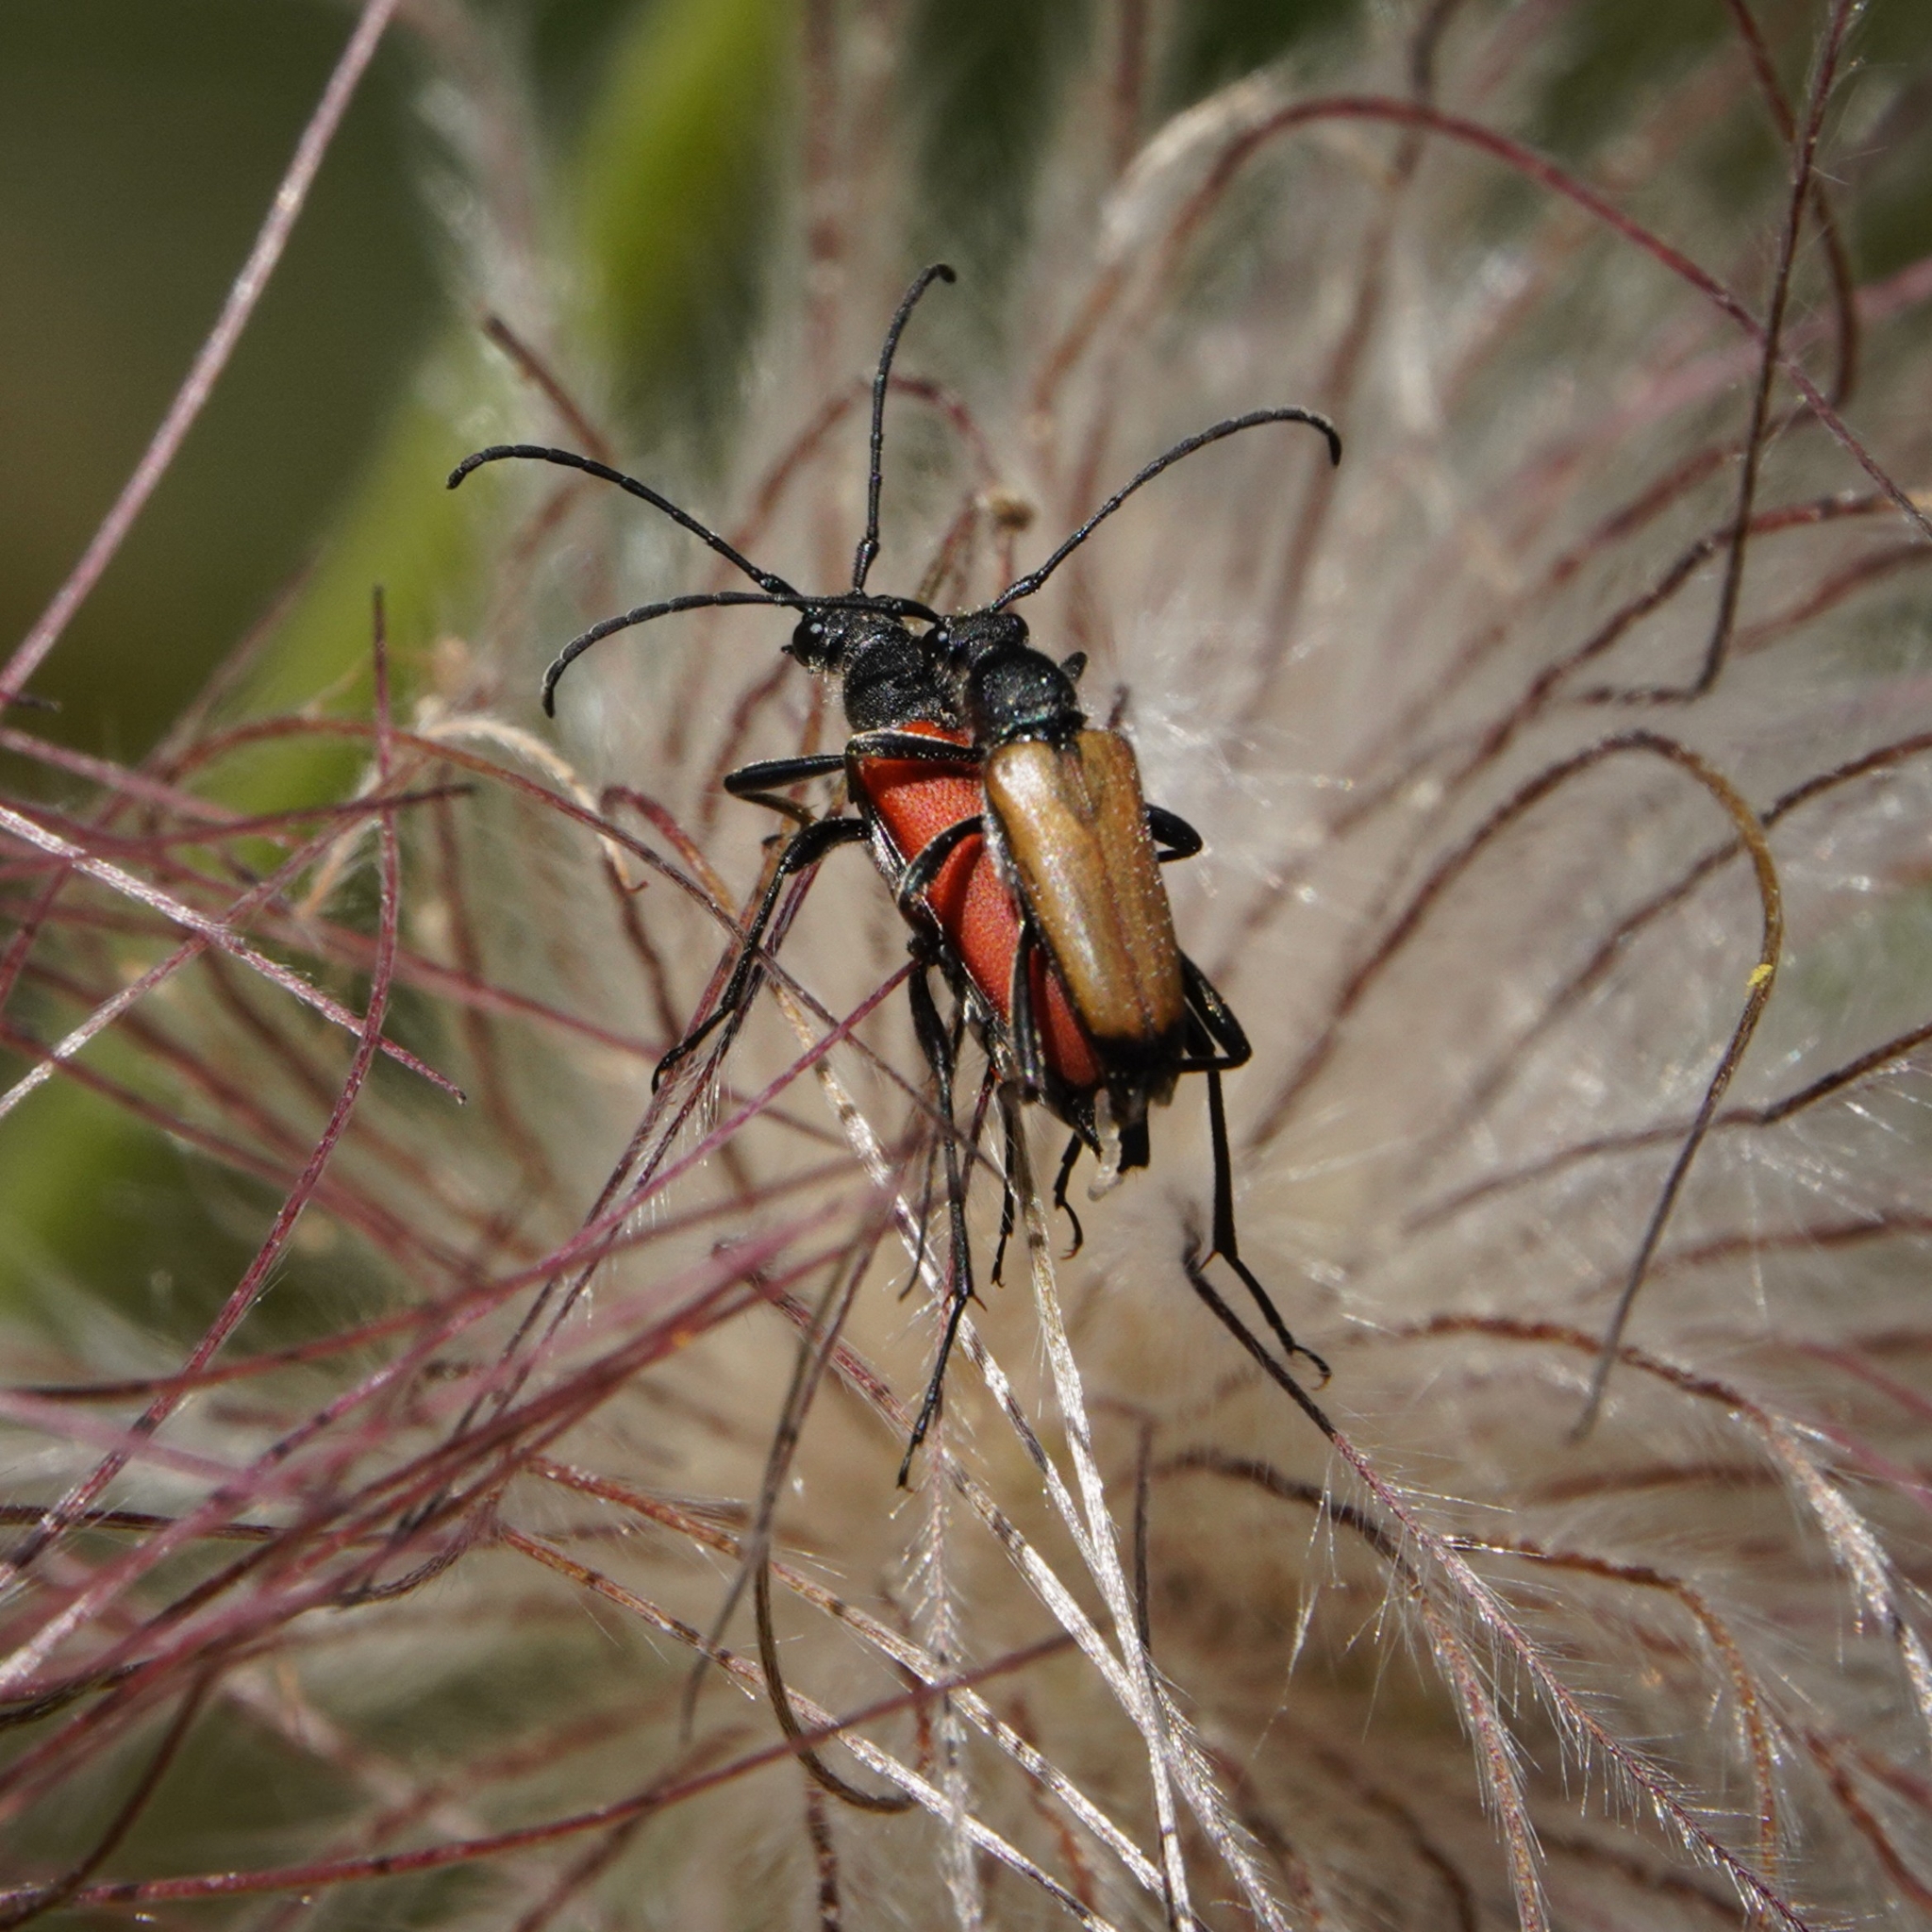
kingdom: Animalia
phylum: Arthropoda
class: Insecta
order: Coleoptera
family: Cerambycidae
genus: Anastrangalia
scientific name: Anastrangalia sanguinolenta
